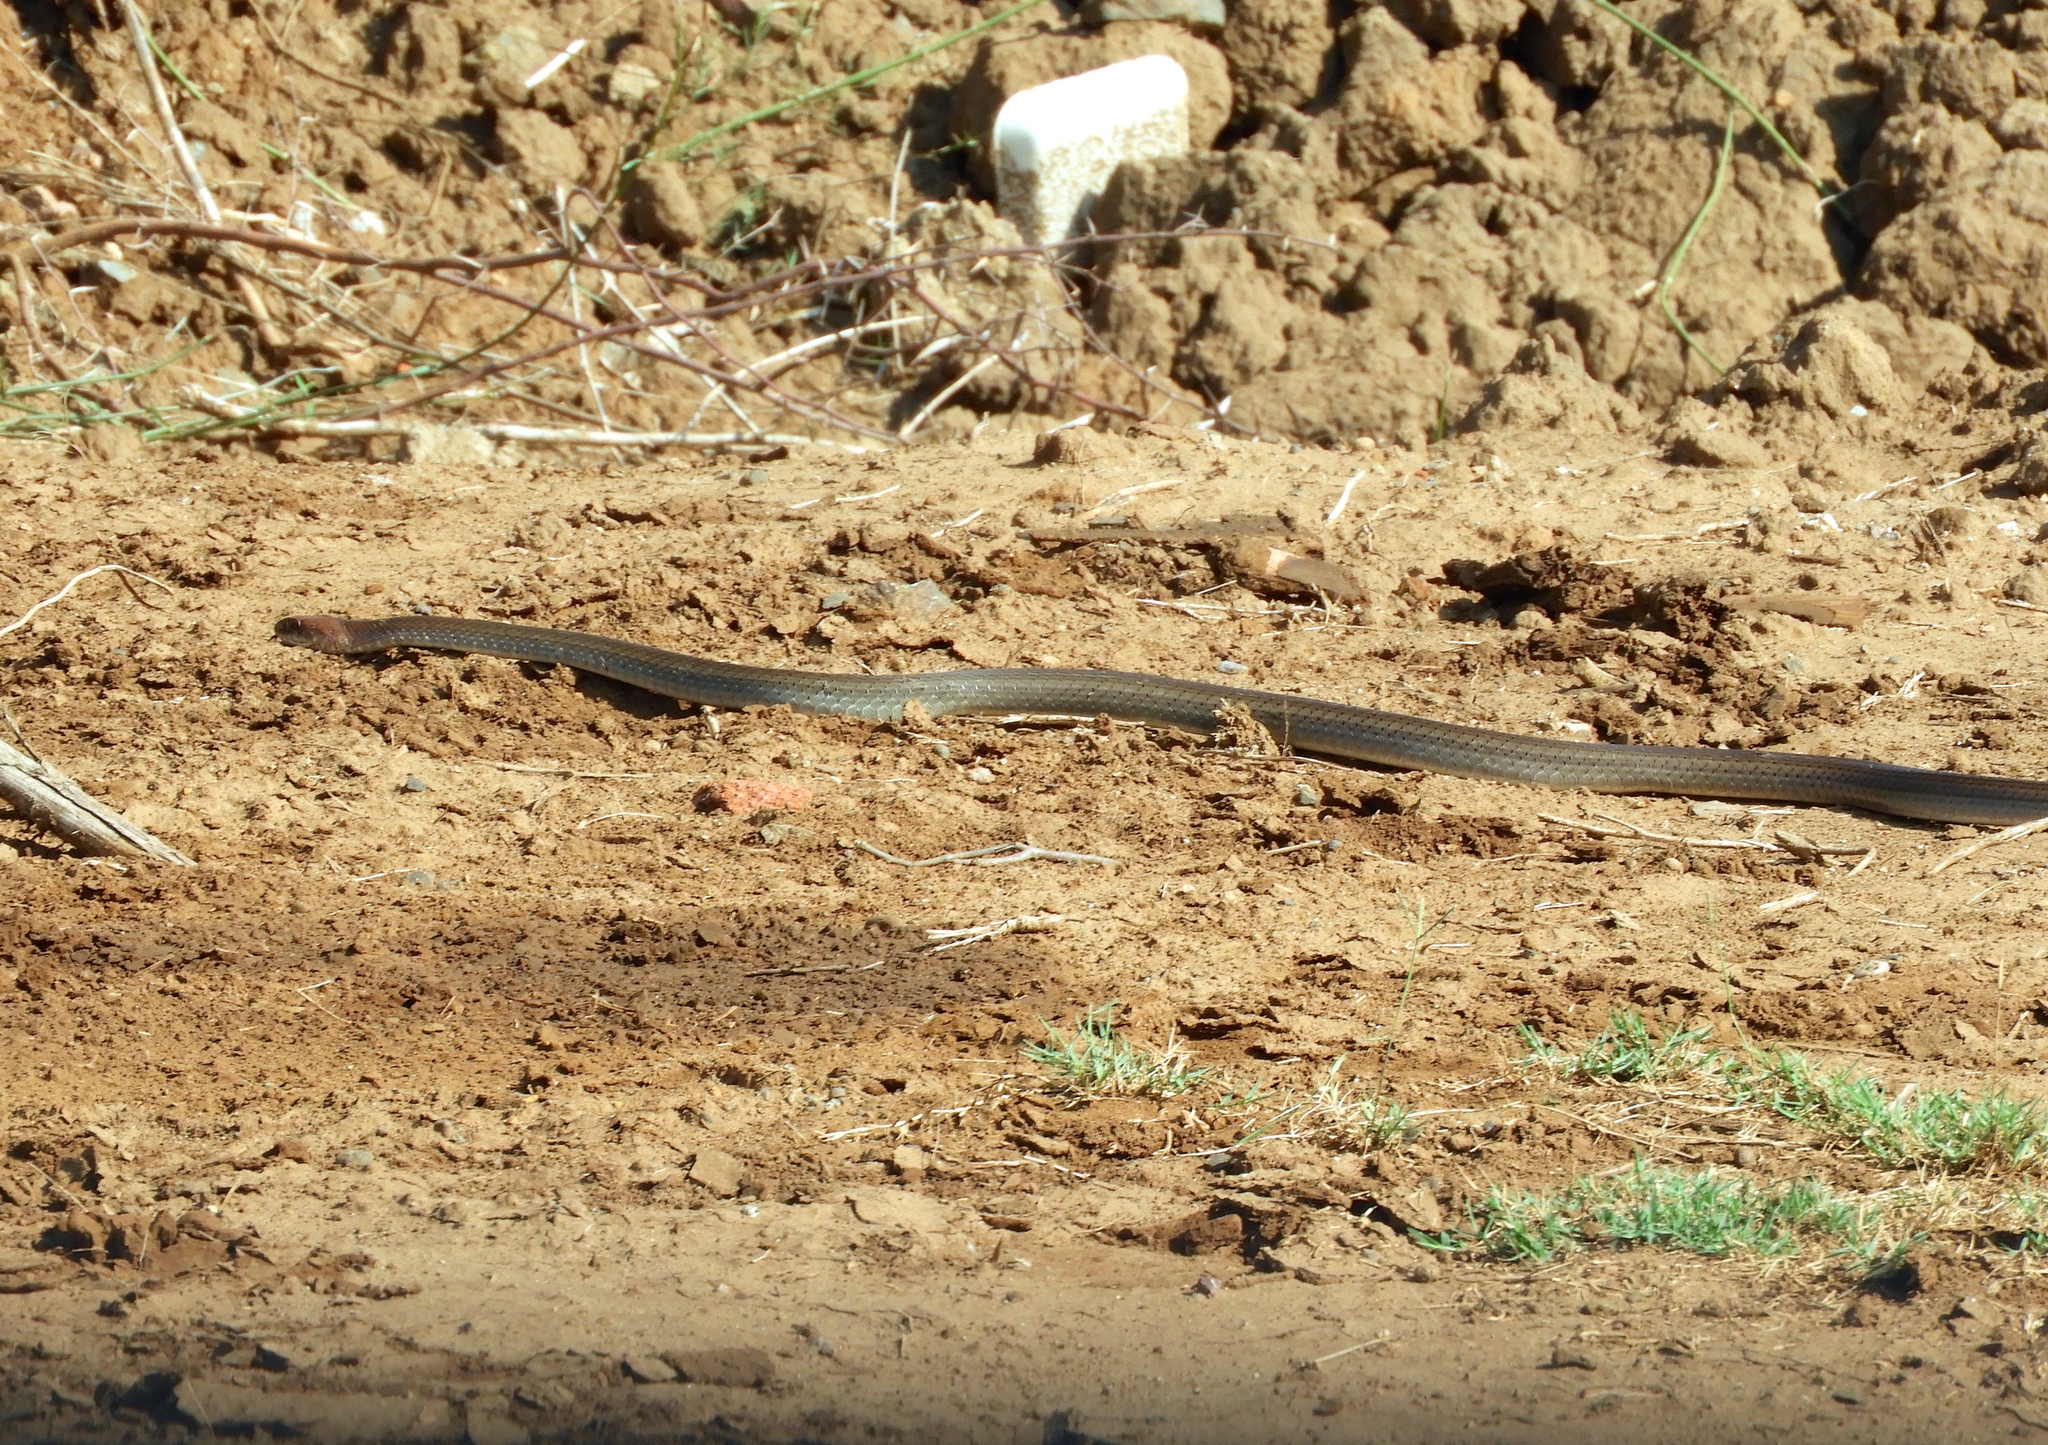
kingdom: Animalia
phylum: Chordata
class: Squamata
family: Colubridae
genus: Masticophis
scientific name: Masticophis mentovarius
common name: Neotropical whip snake
